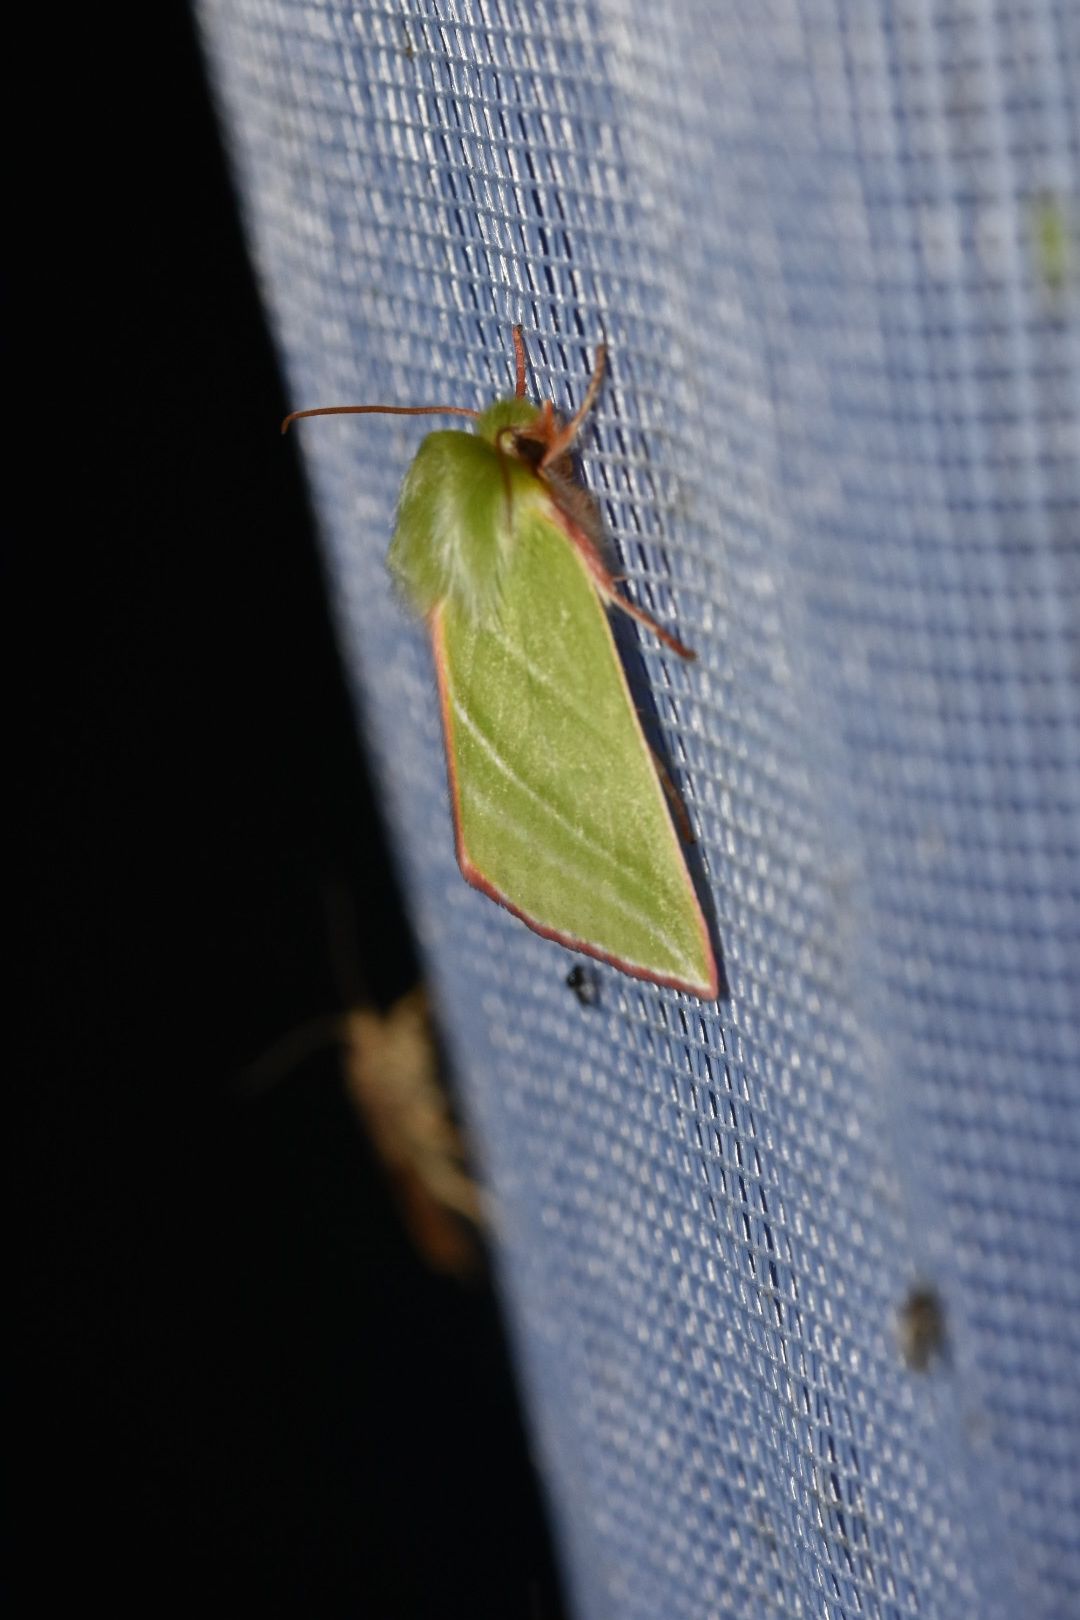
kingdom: Animalia
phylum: Arthropoda
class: Insecta
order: Lepidoptera
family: Nolidae
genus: Pseudoips
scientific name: Pseudoips prasinana
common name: Green silver-lines
